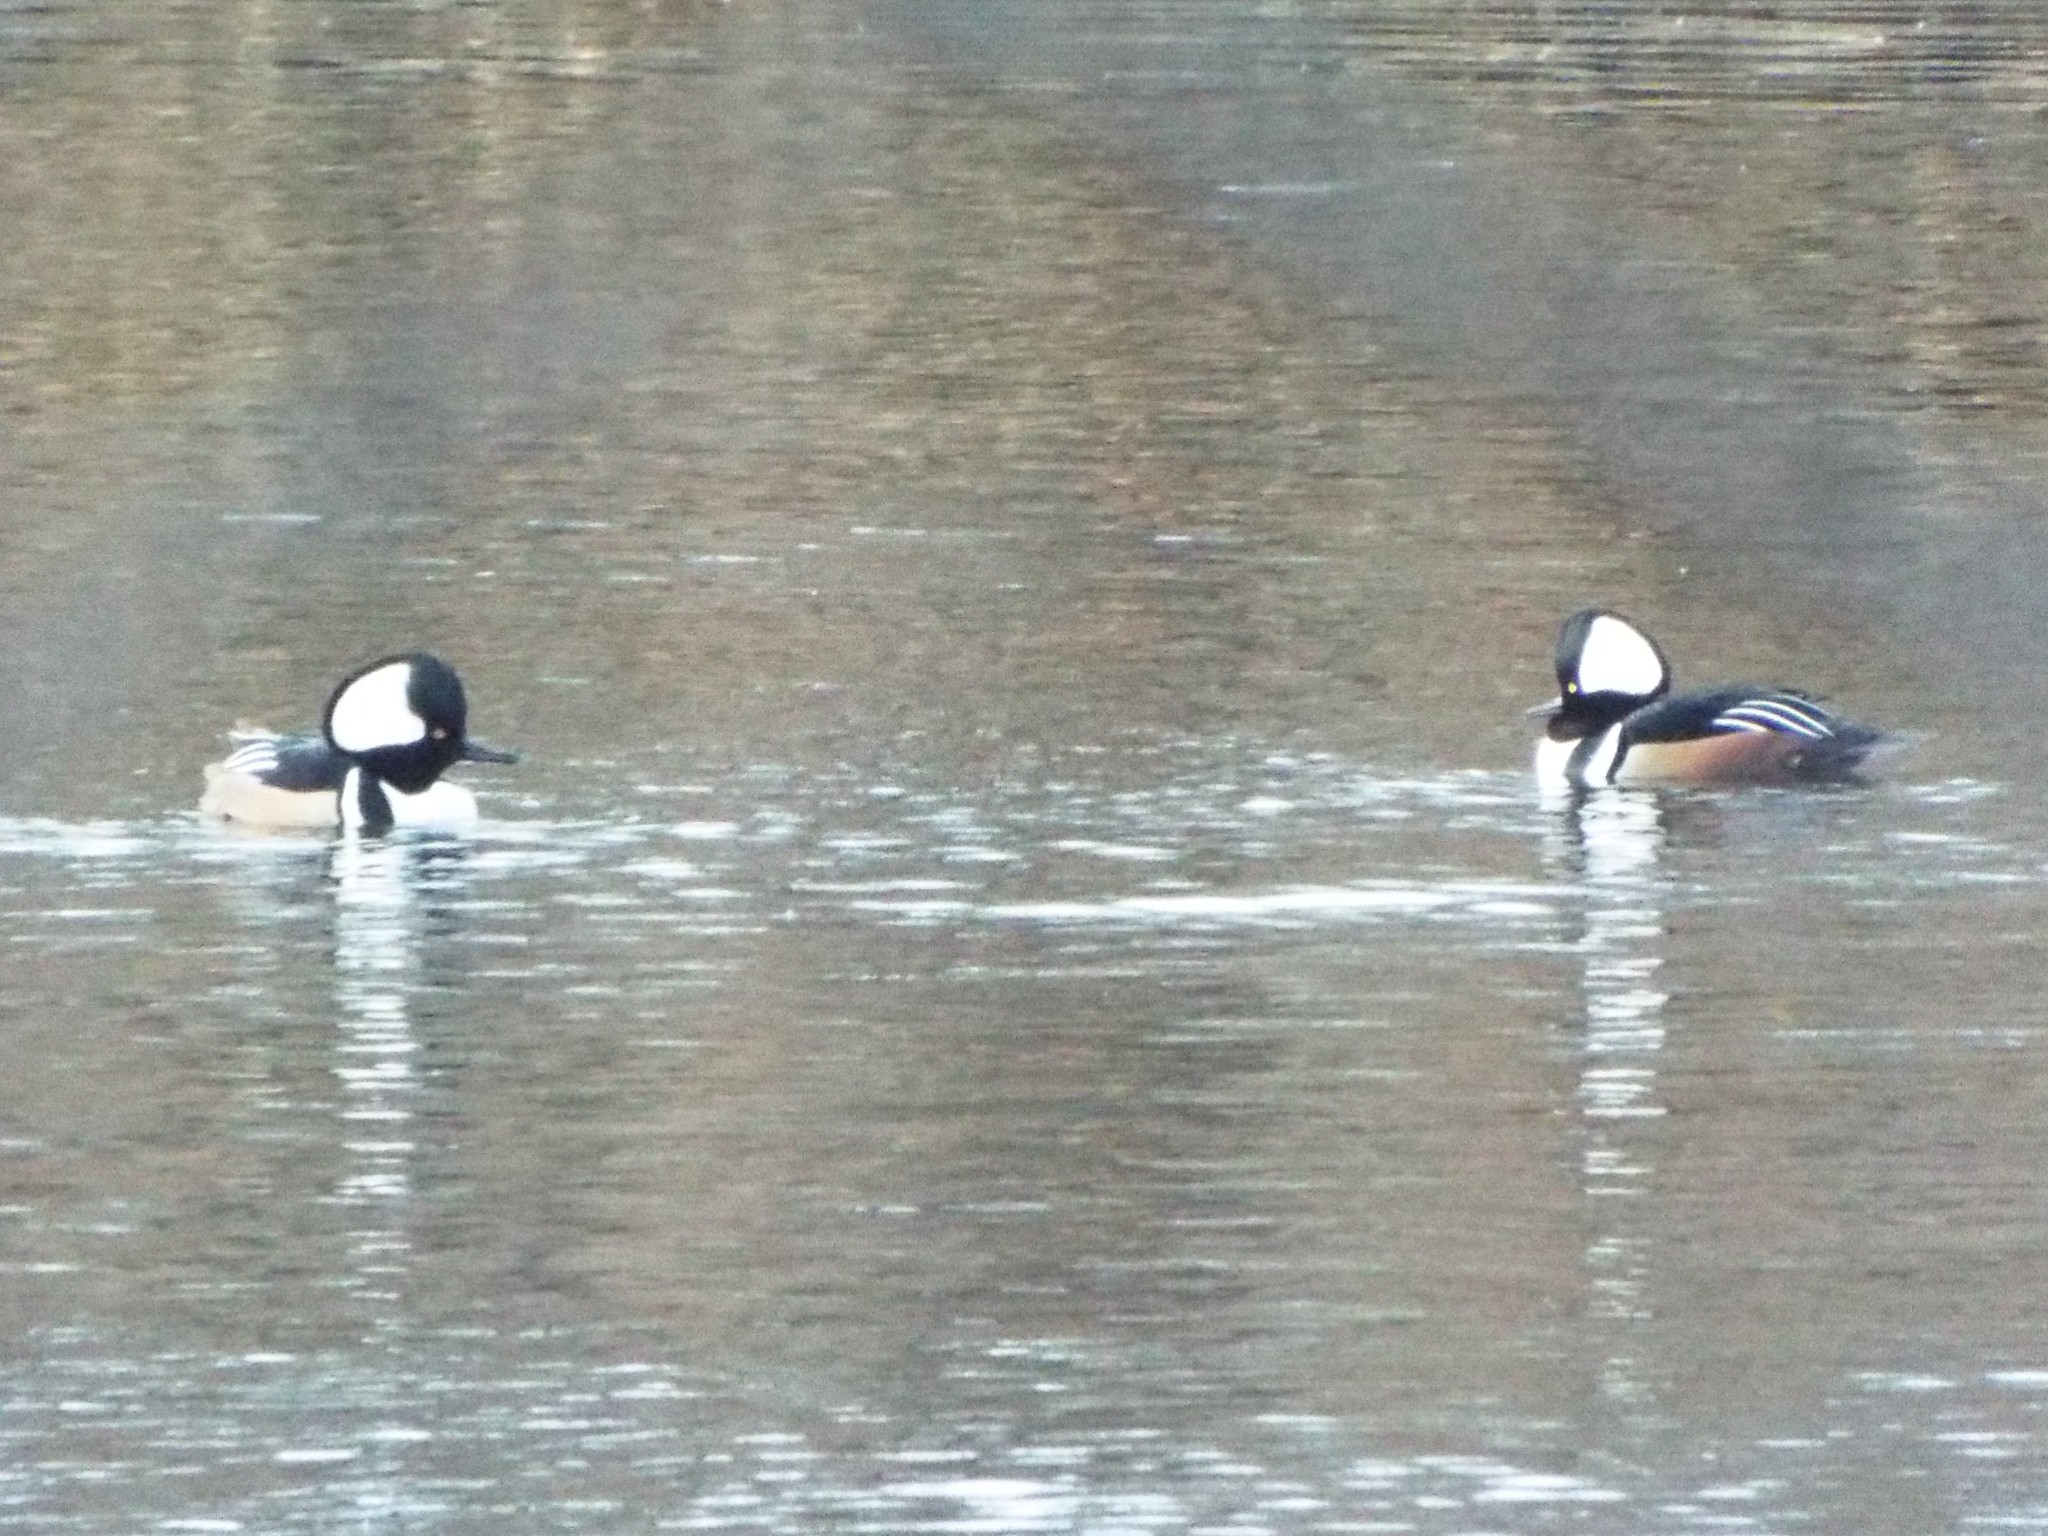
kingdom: Animalia
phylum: Chordata
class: Aves
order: Anseriformes
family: Anatidae
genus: Lophodytes
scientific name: Lophodytes cucullatus
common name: Hooded merganser
